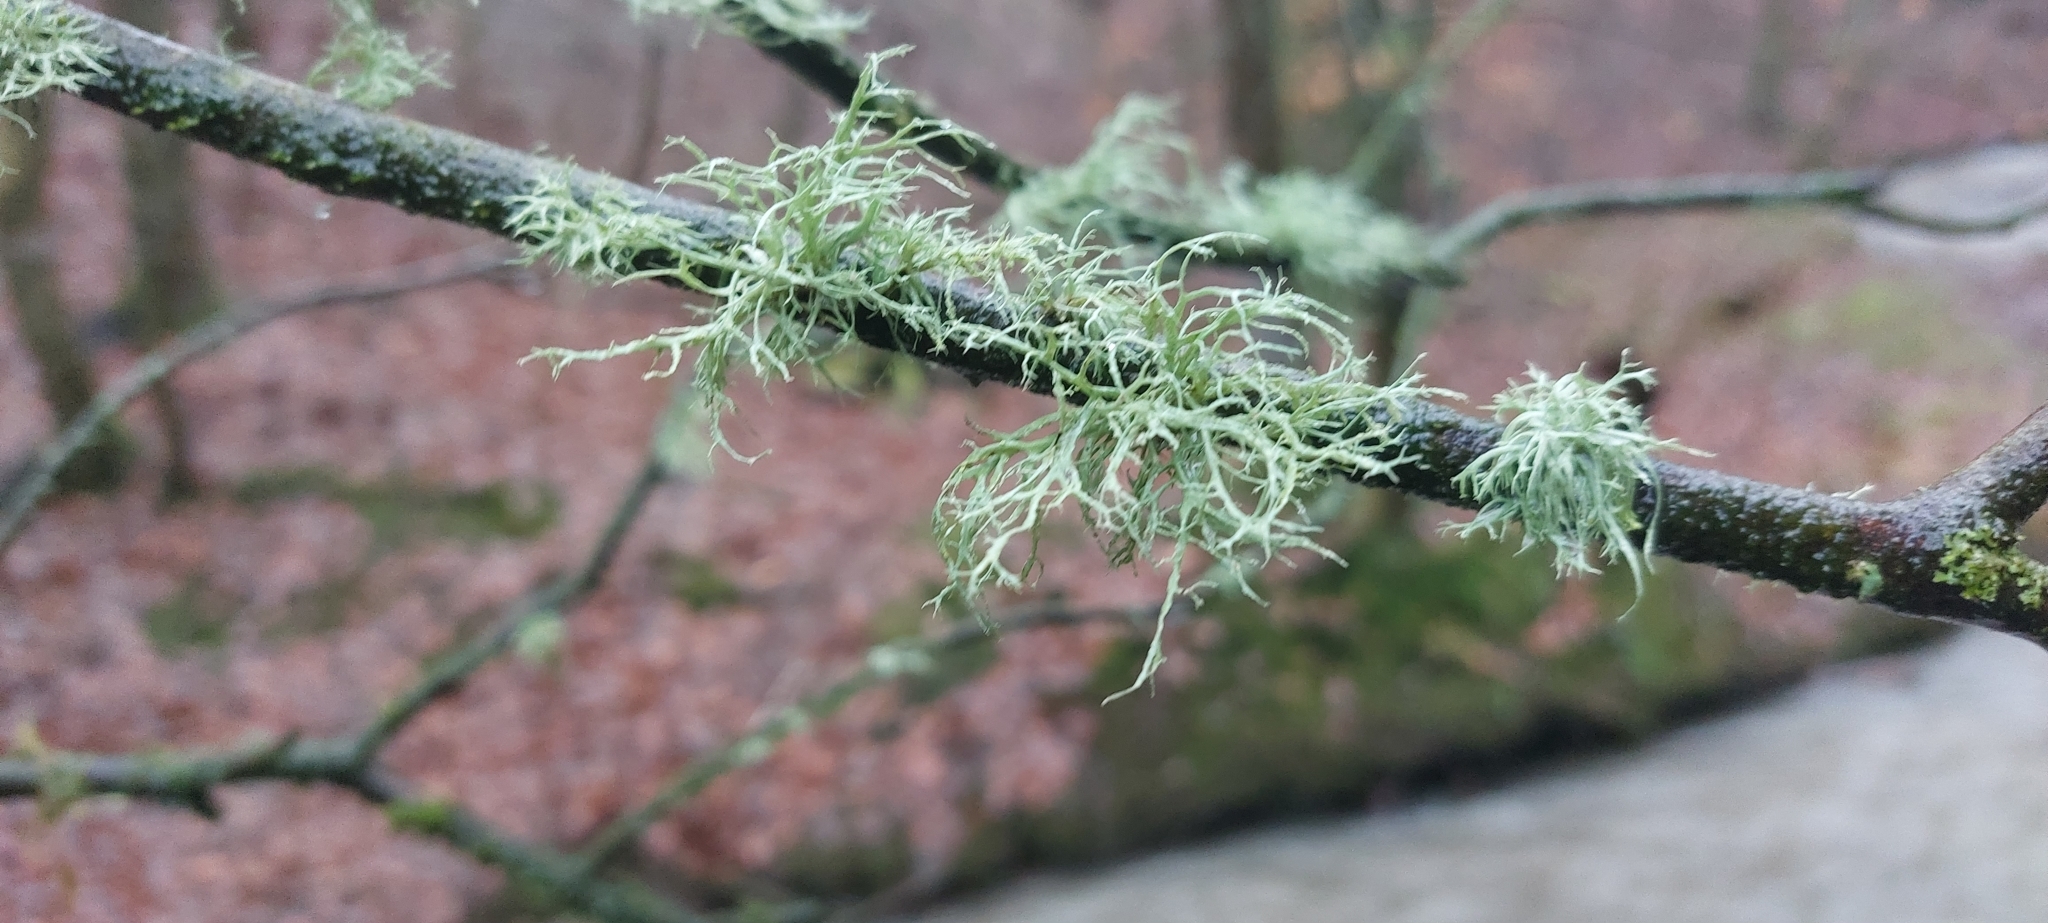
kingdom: Fungi
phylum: Ascomycota
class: Lecanoromycetes
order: Lecanorales
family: Ramalinaceae
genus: Ramalina
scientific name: Ramalina farinacea
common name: Farinose cartilage lichen
